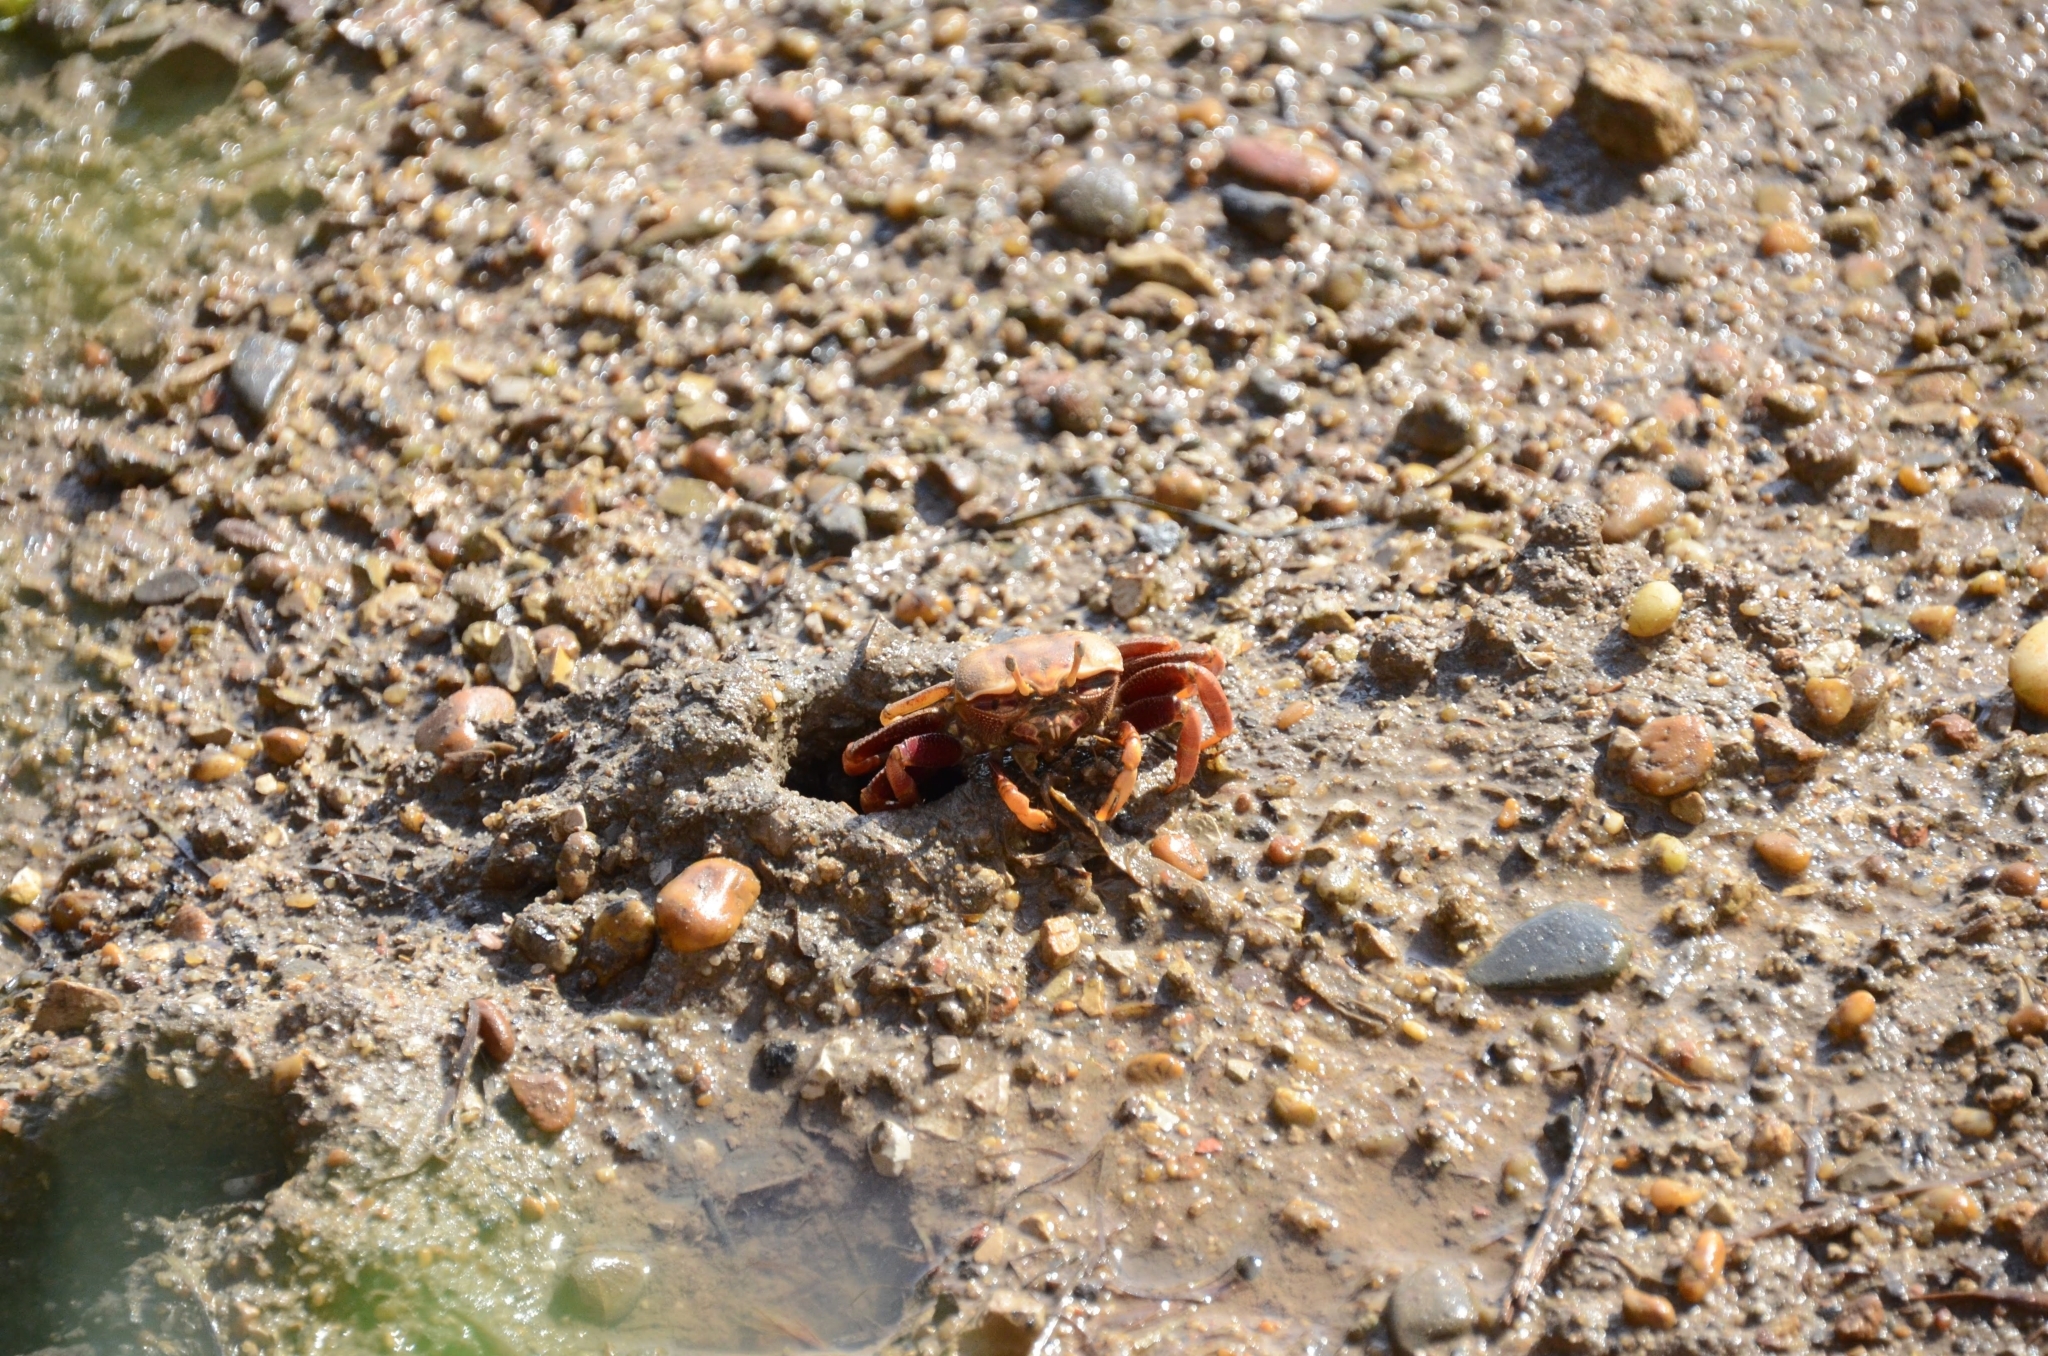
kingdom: Animalia
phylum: Arthropoda
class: Malacostraca
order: Decapoda
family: Ocypodidae
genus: Afruca
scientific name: Afruca tangeri
